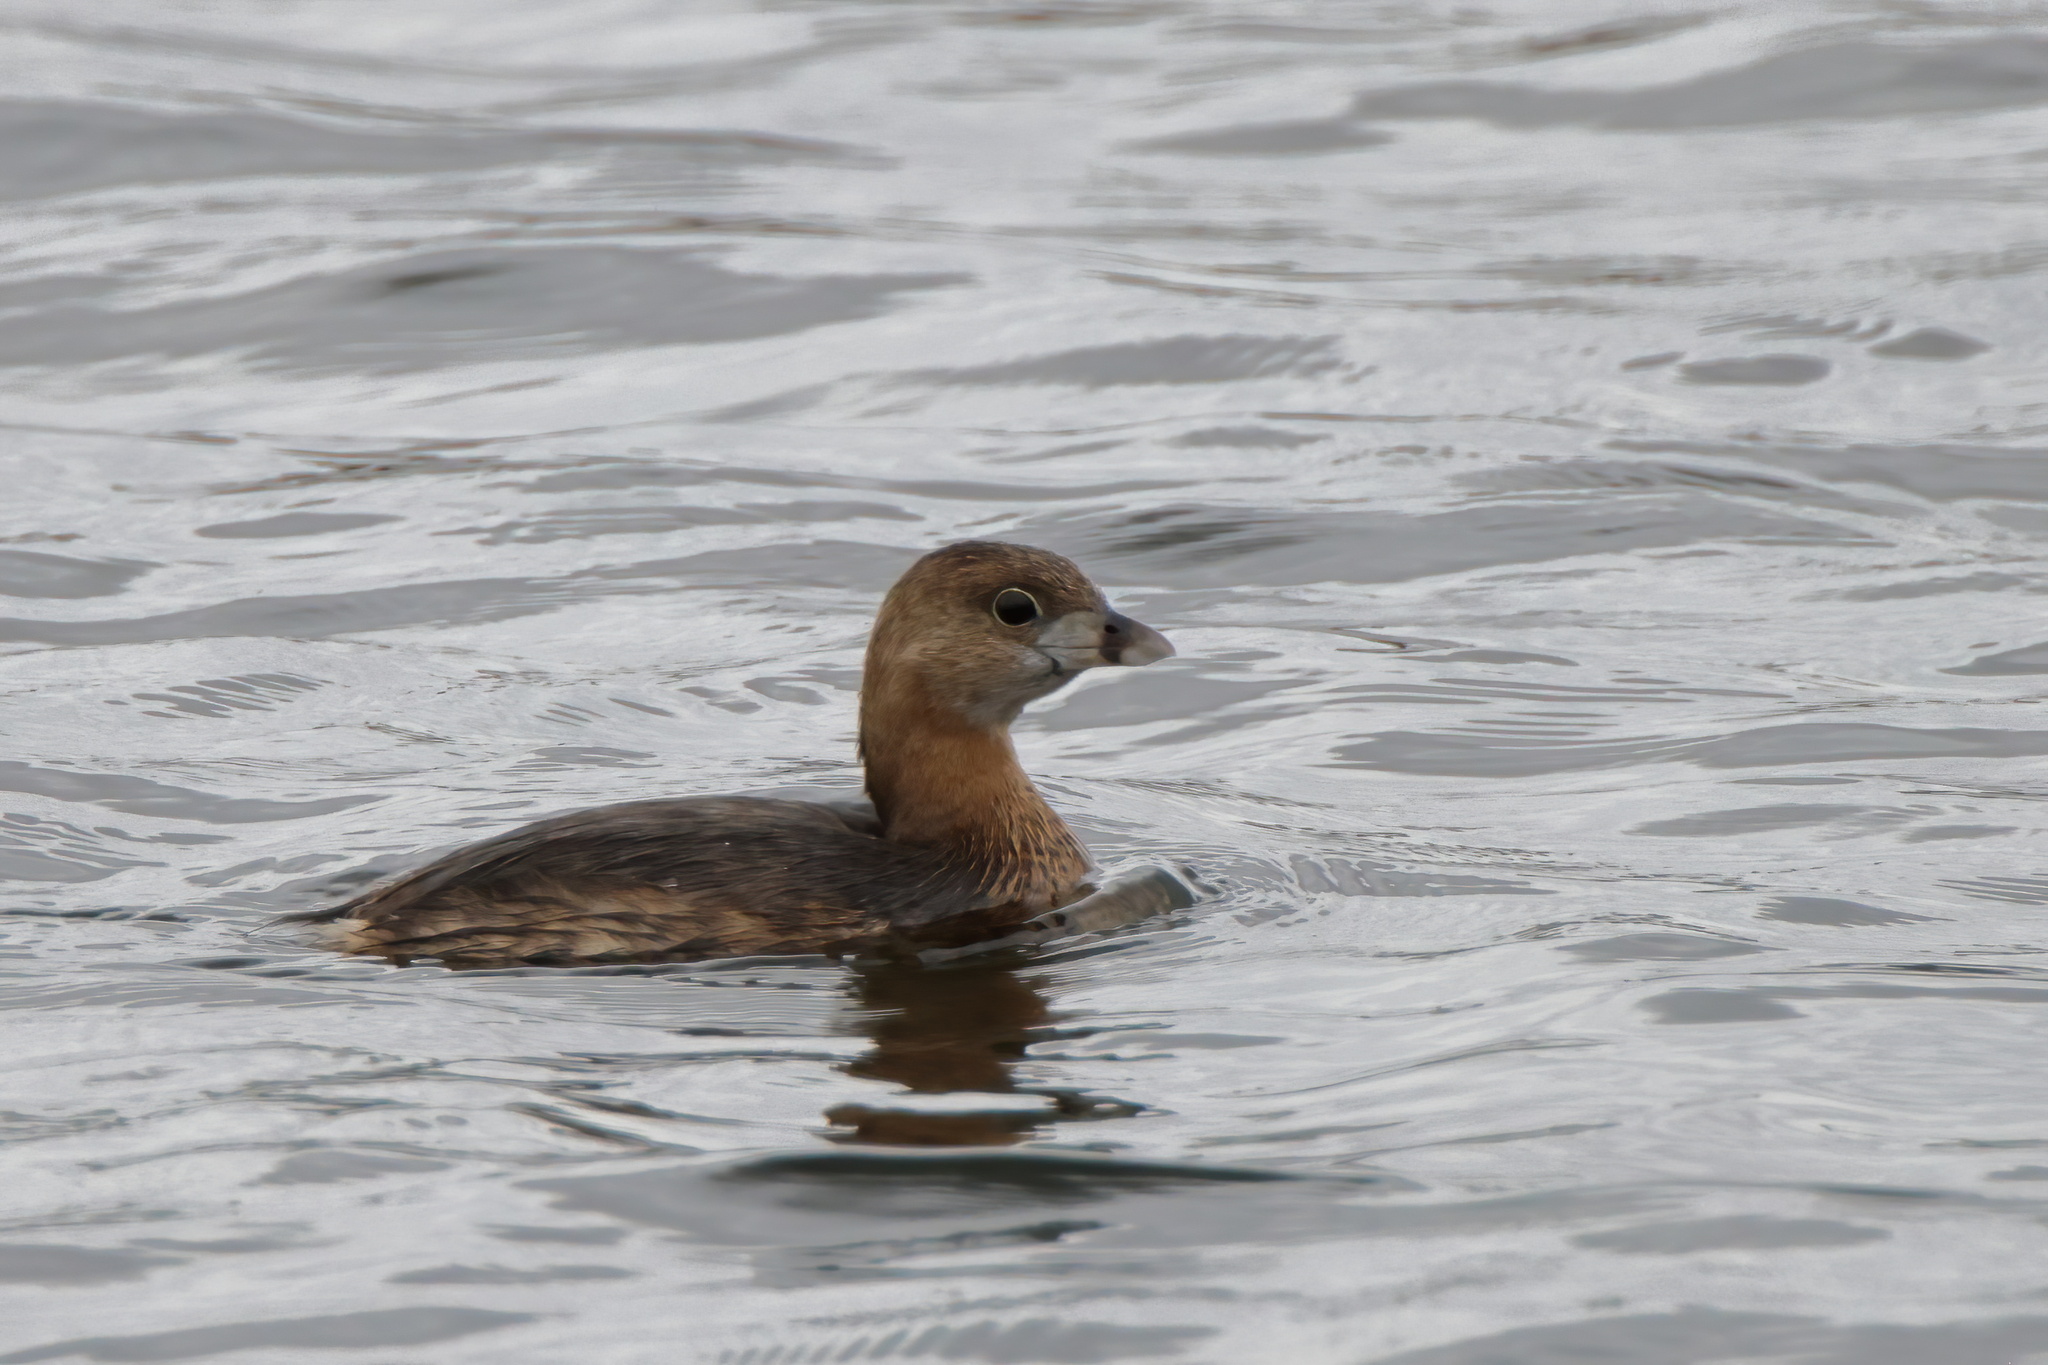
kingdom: Animalia
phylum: Chordata
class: Aves
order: Podicipediformes
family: Podicipedidae
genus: Podilymbus
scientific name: Podilymbus podiceps
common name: Pied-billed grebe
